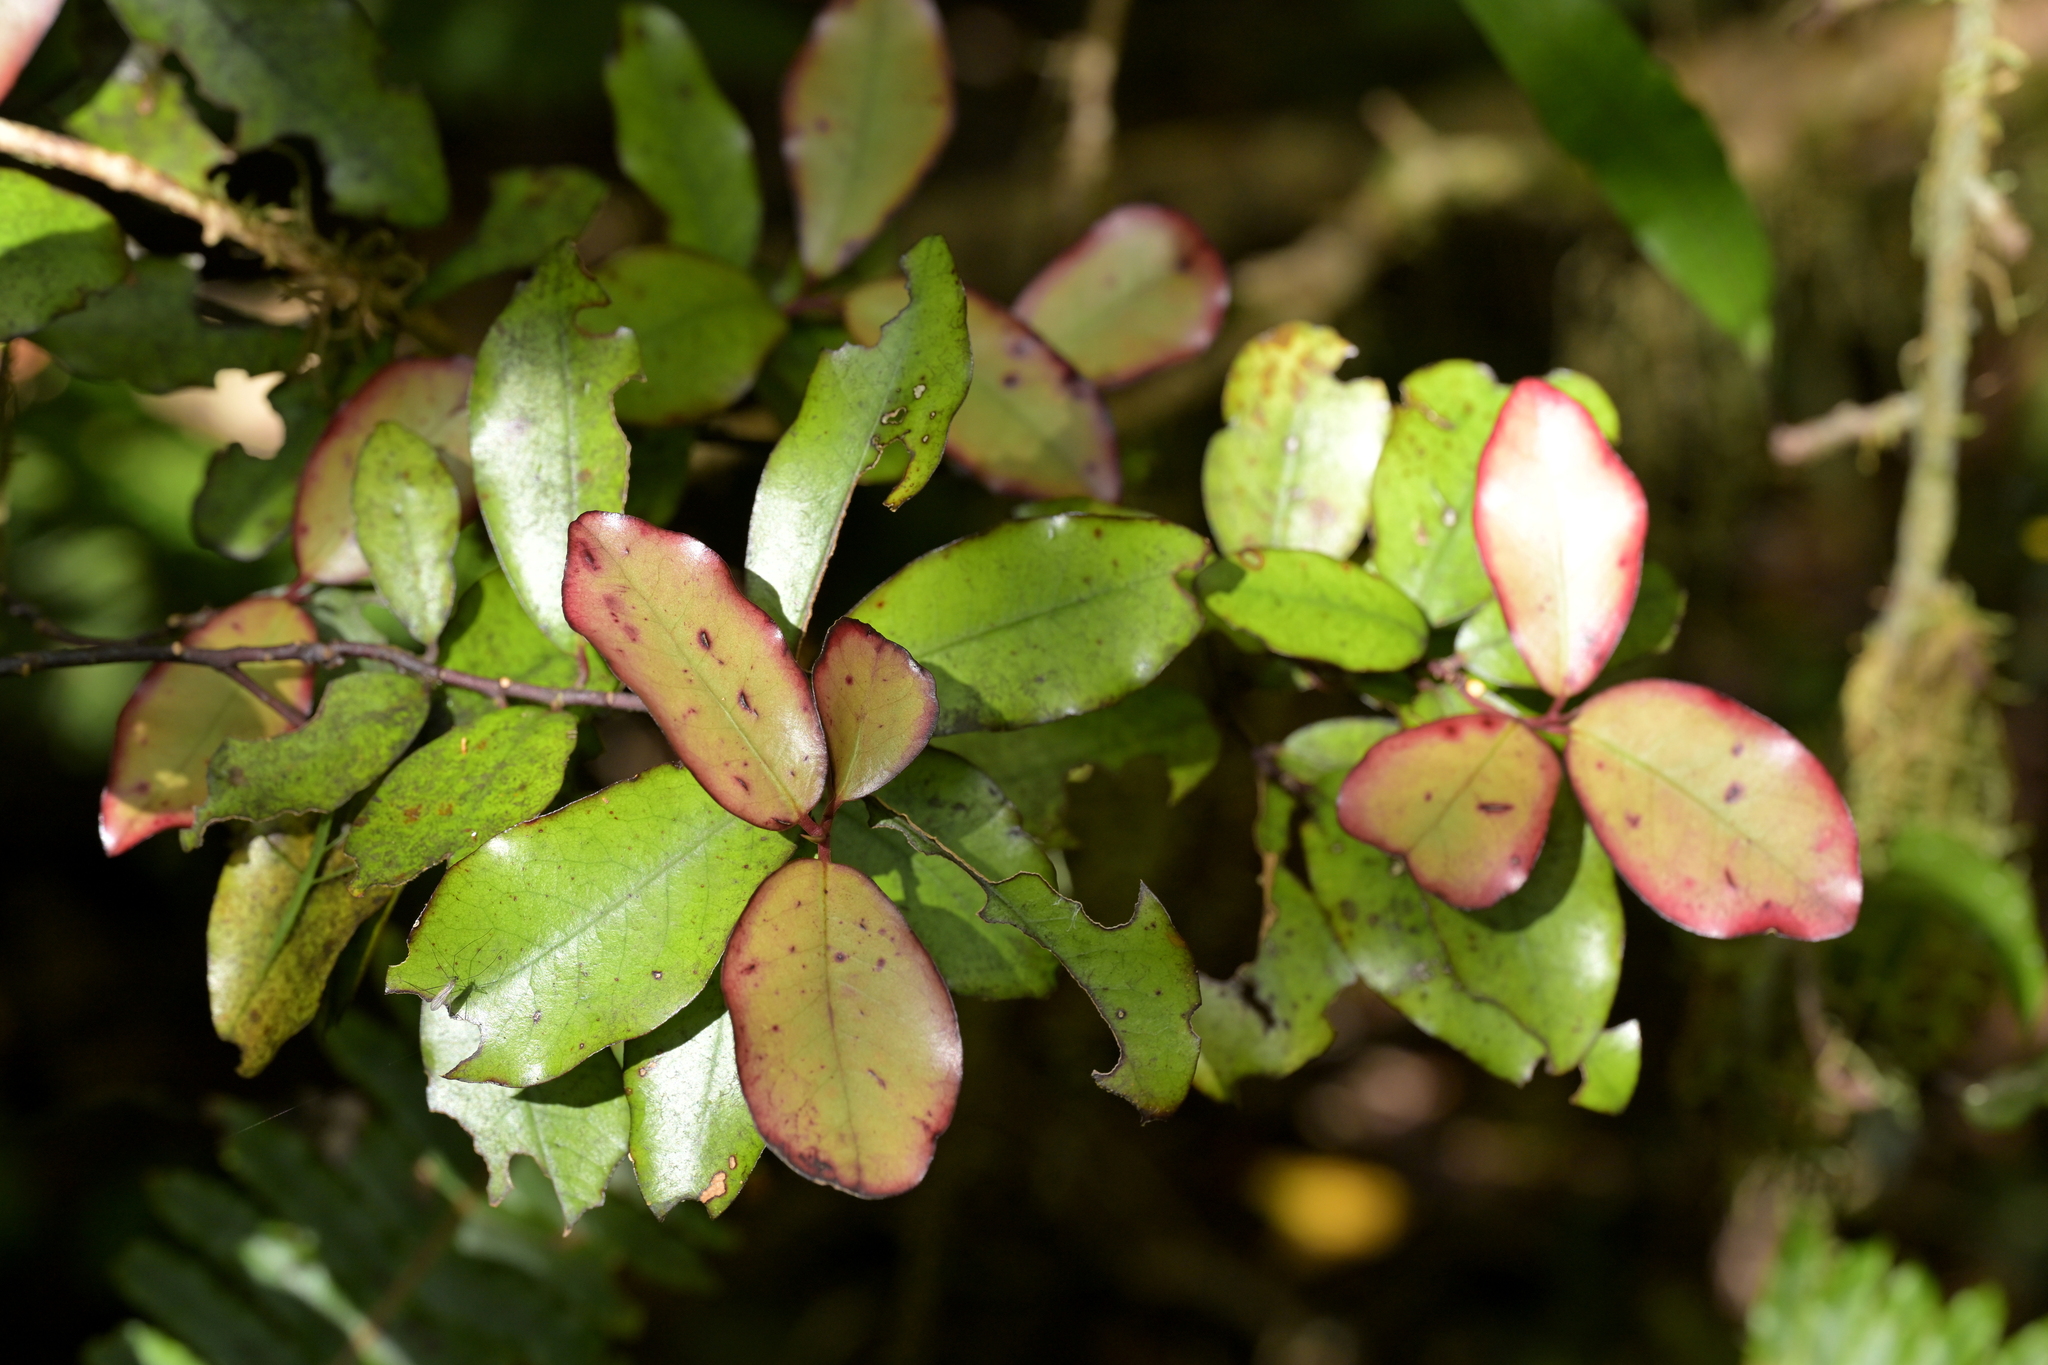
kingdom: Plantae
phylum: Tracheophyta
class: Magnoliopsida
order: Canellales
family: Winteraceae
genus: Pseudowintera
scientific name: Pseudowintera colorata
